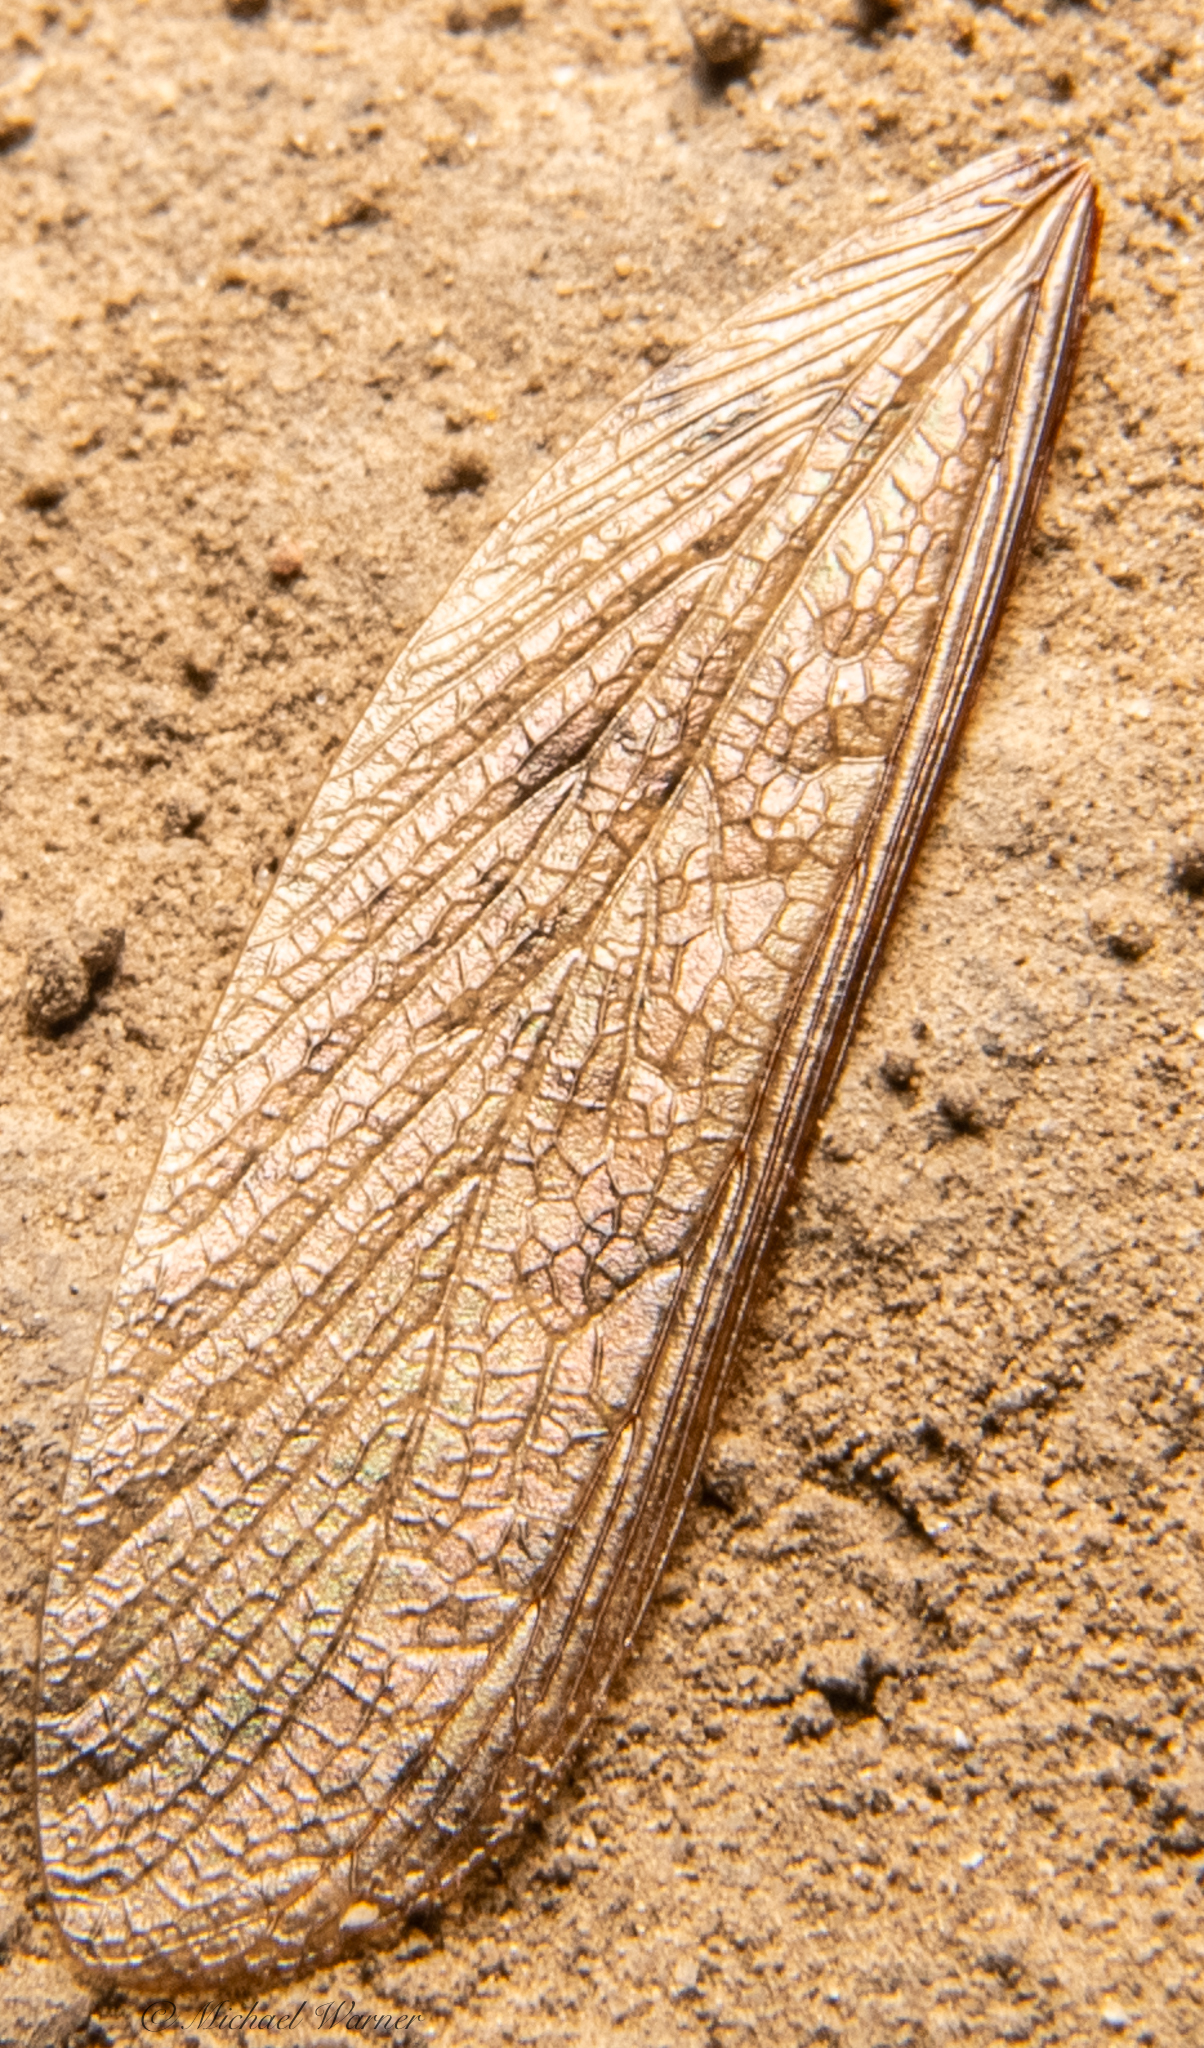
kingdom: Animalia
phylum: Arthropoda
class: Insecta
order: Blattodea
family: Archotermopsidae
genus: Zootermopsis
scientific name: Zootermopsis
